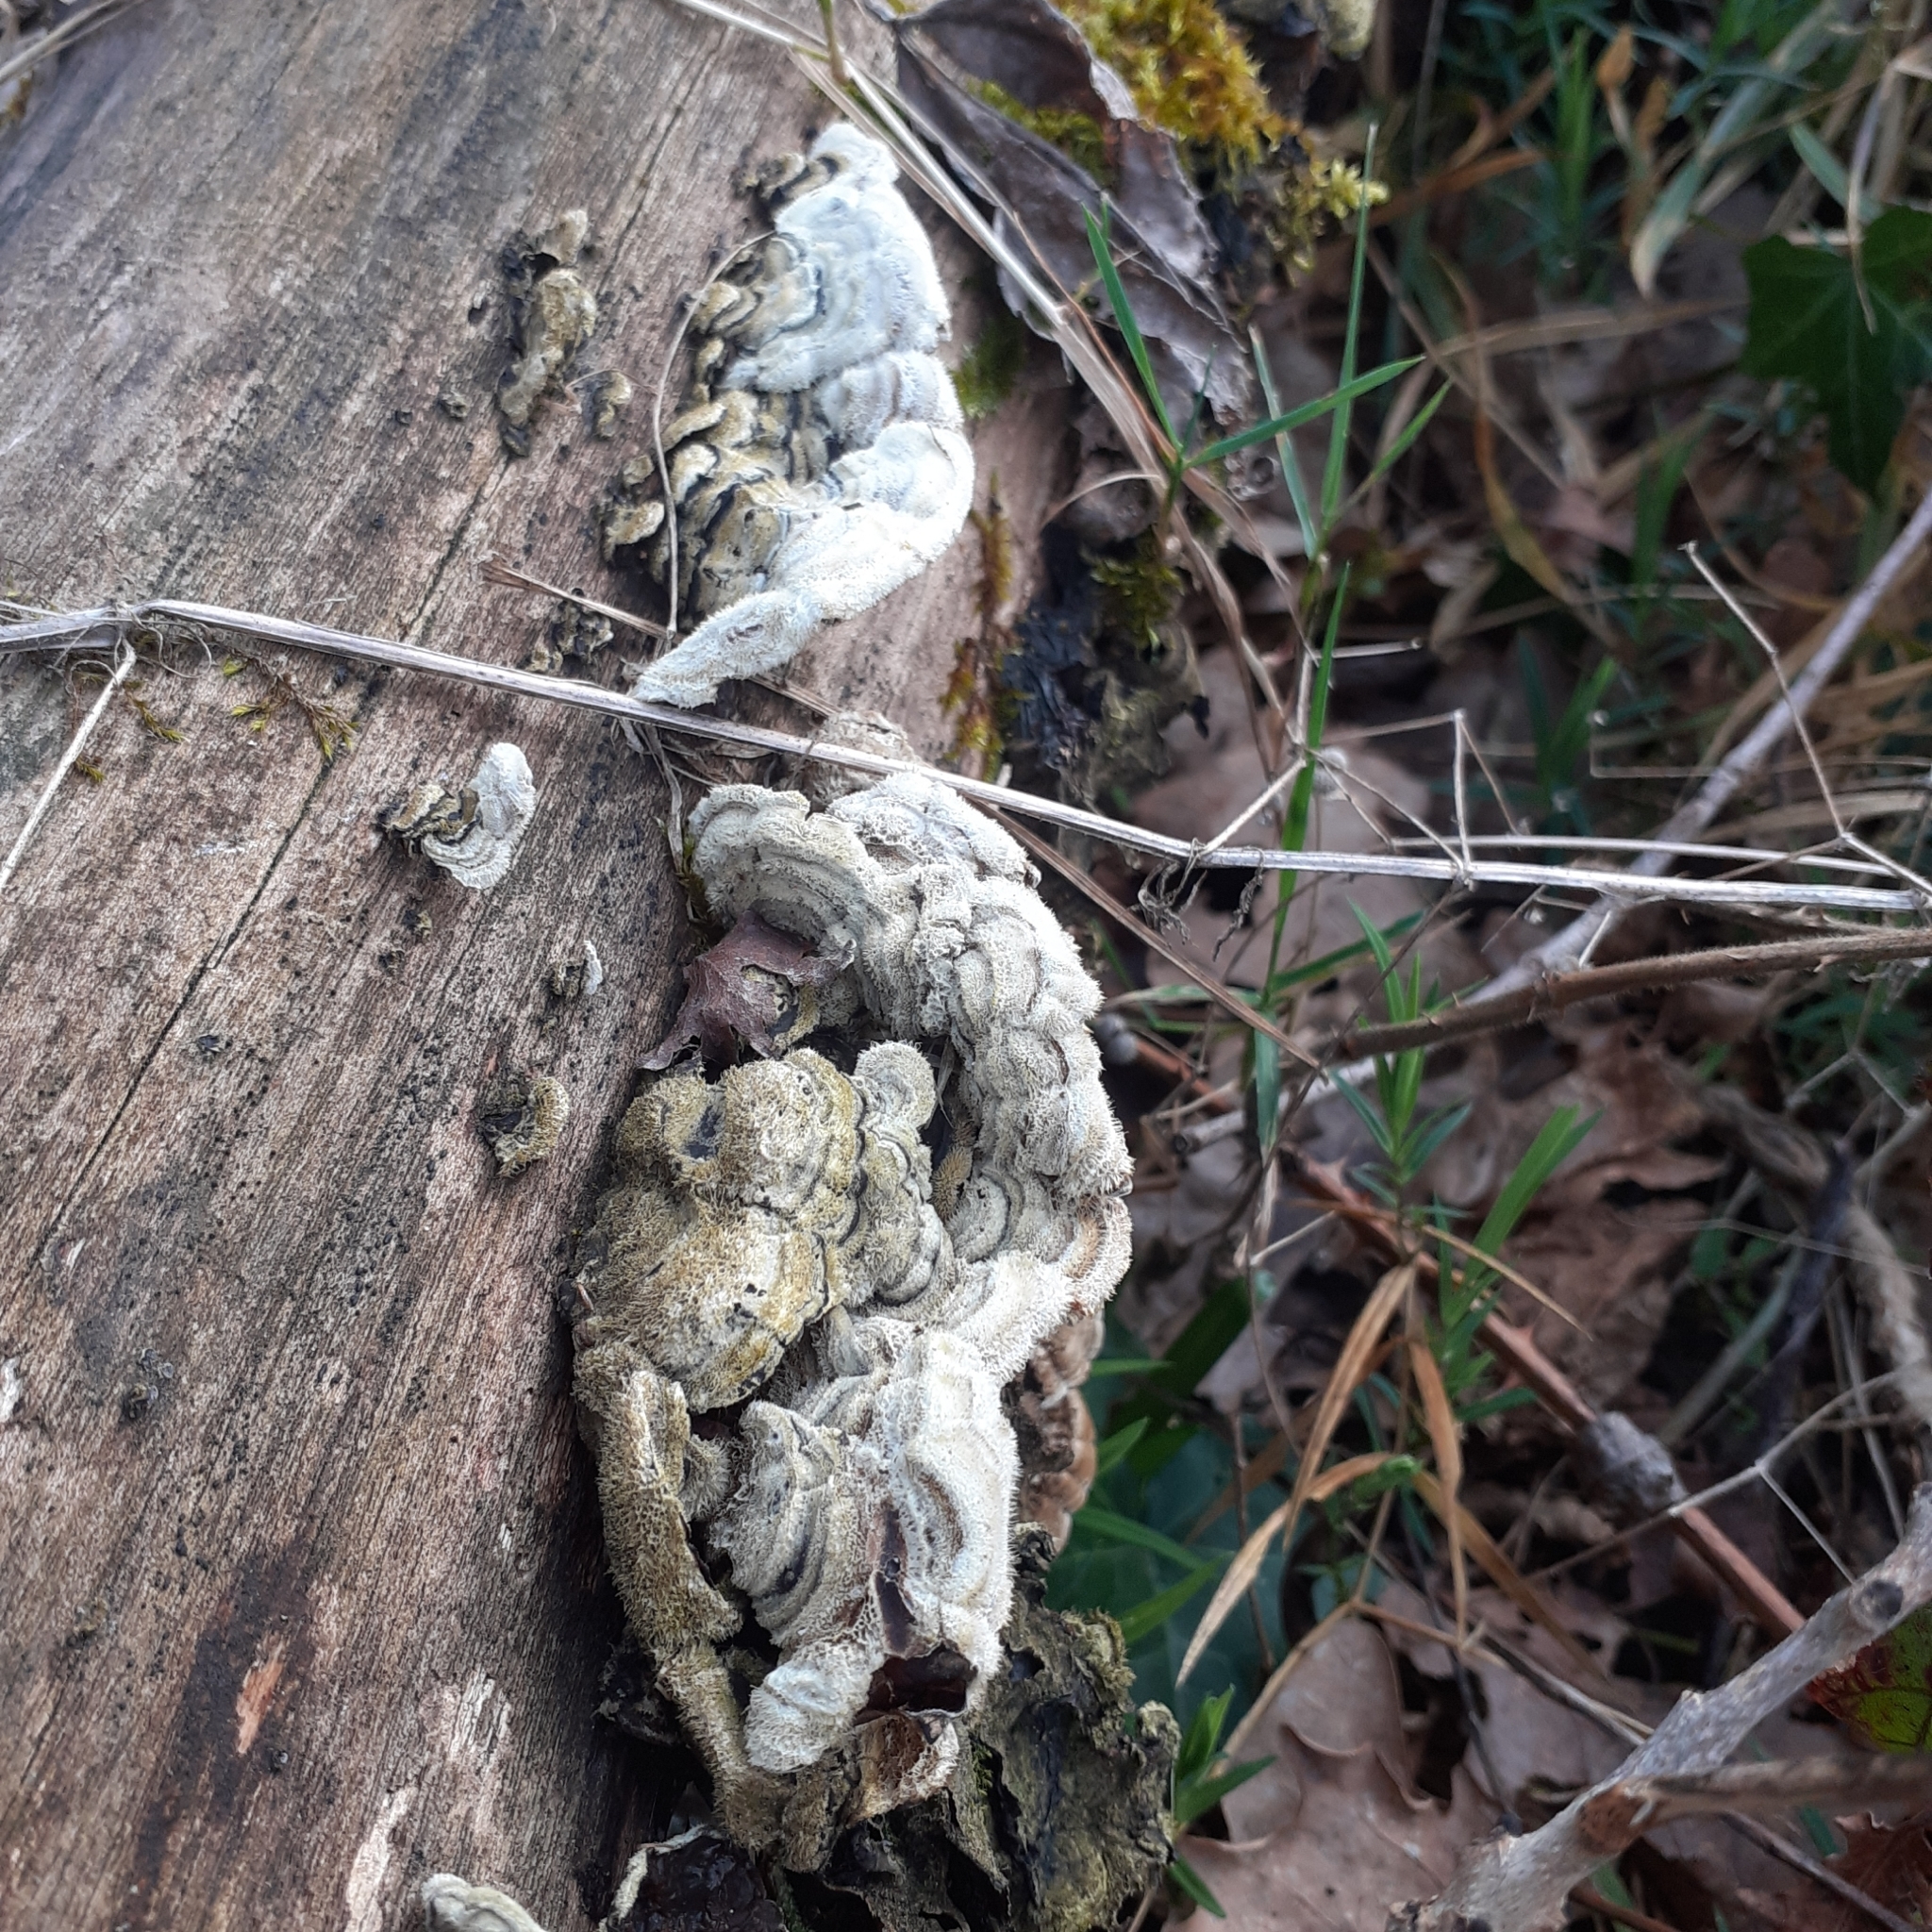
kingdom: Fungi
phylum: Basidiomycota
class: Agaricomycetes
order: Auriculariales
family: Auriculariaceae
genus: Auricularia
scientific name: Auricularia mesenterica
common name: Tripe fungus
